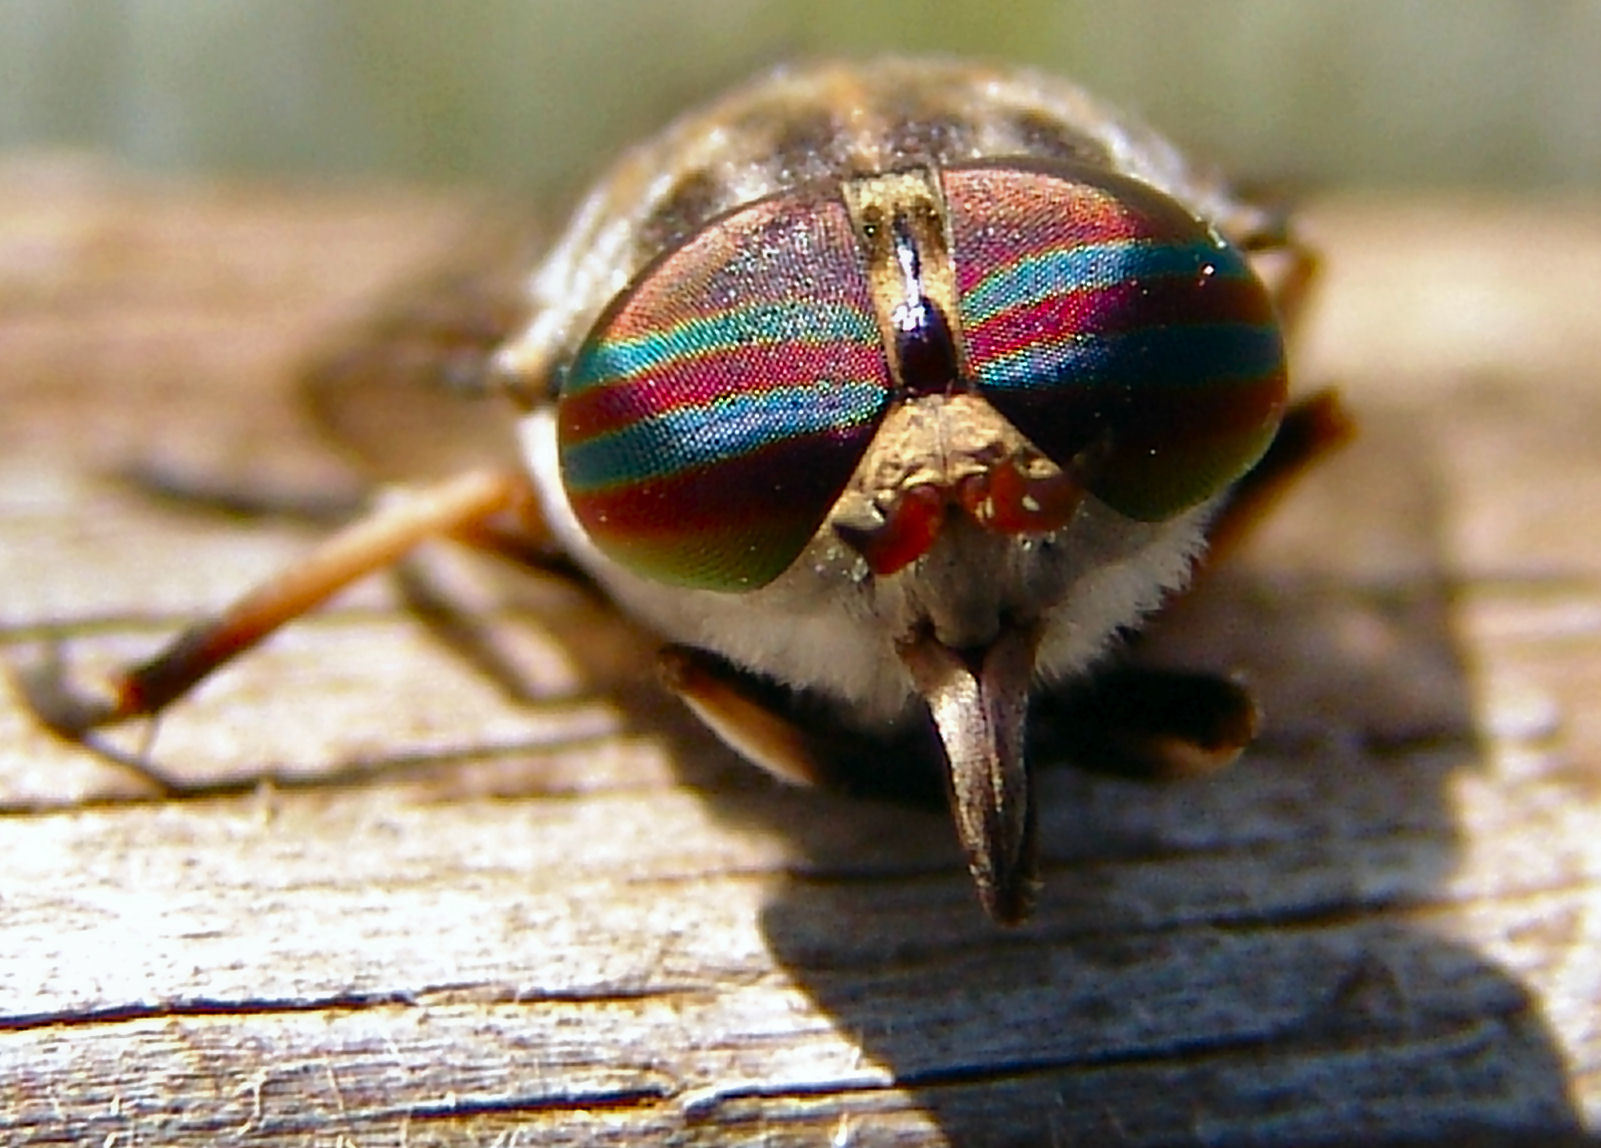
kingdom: Animalia
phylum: Arthropoda
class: Insecta
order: Diptera
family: Tabanidae
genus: Tabanus
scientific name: Tabanus cymatophorus
